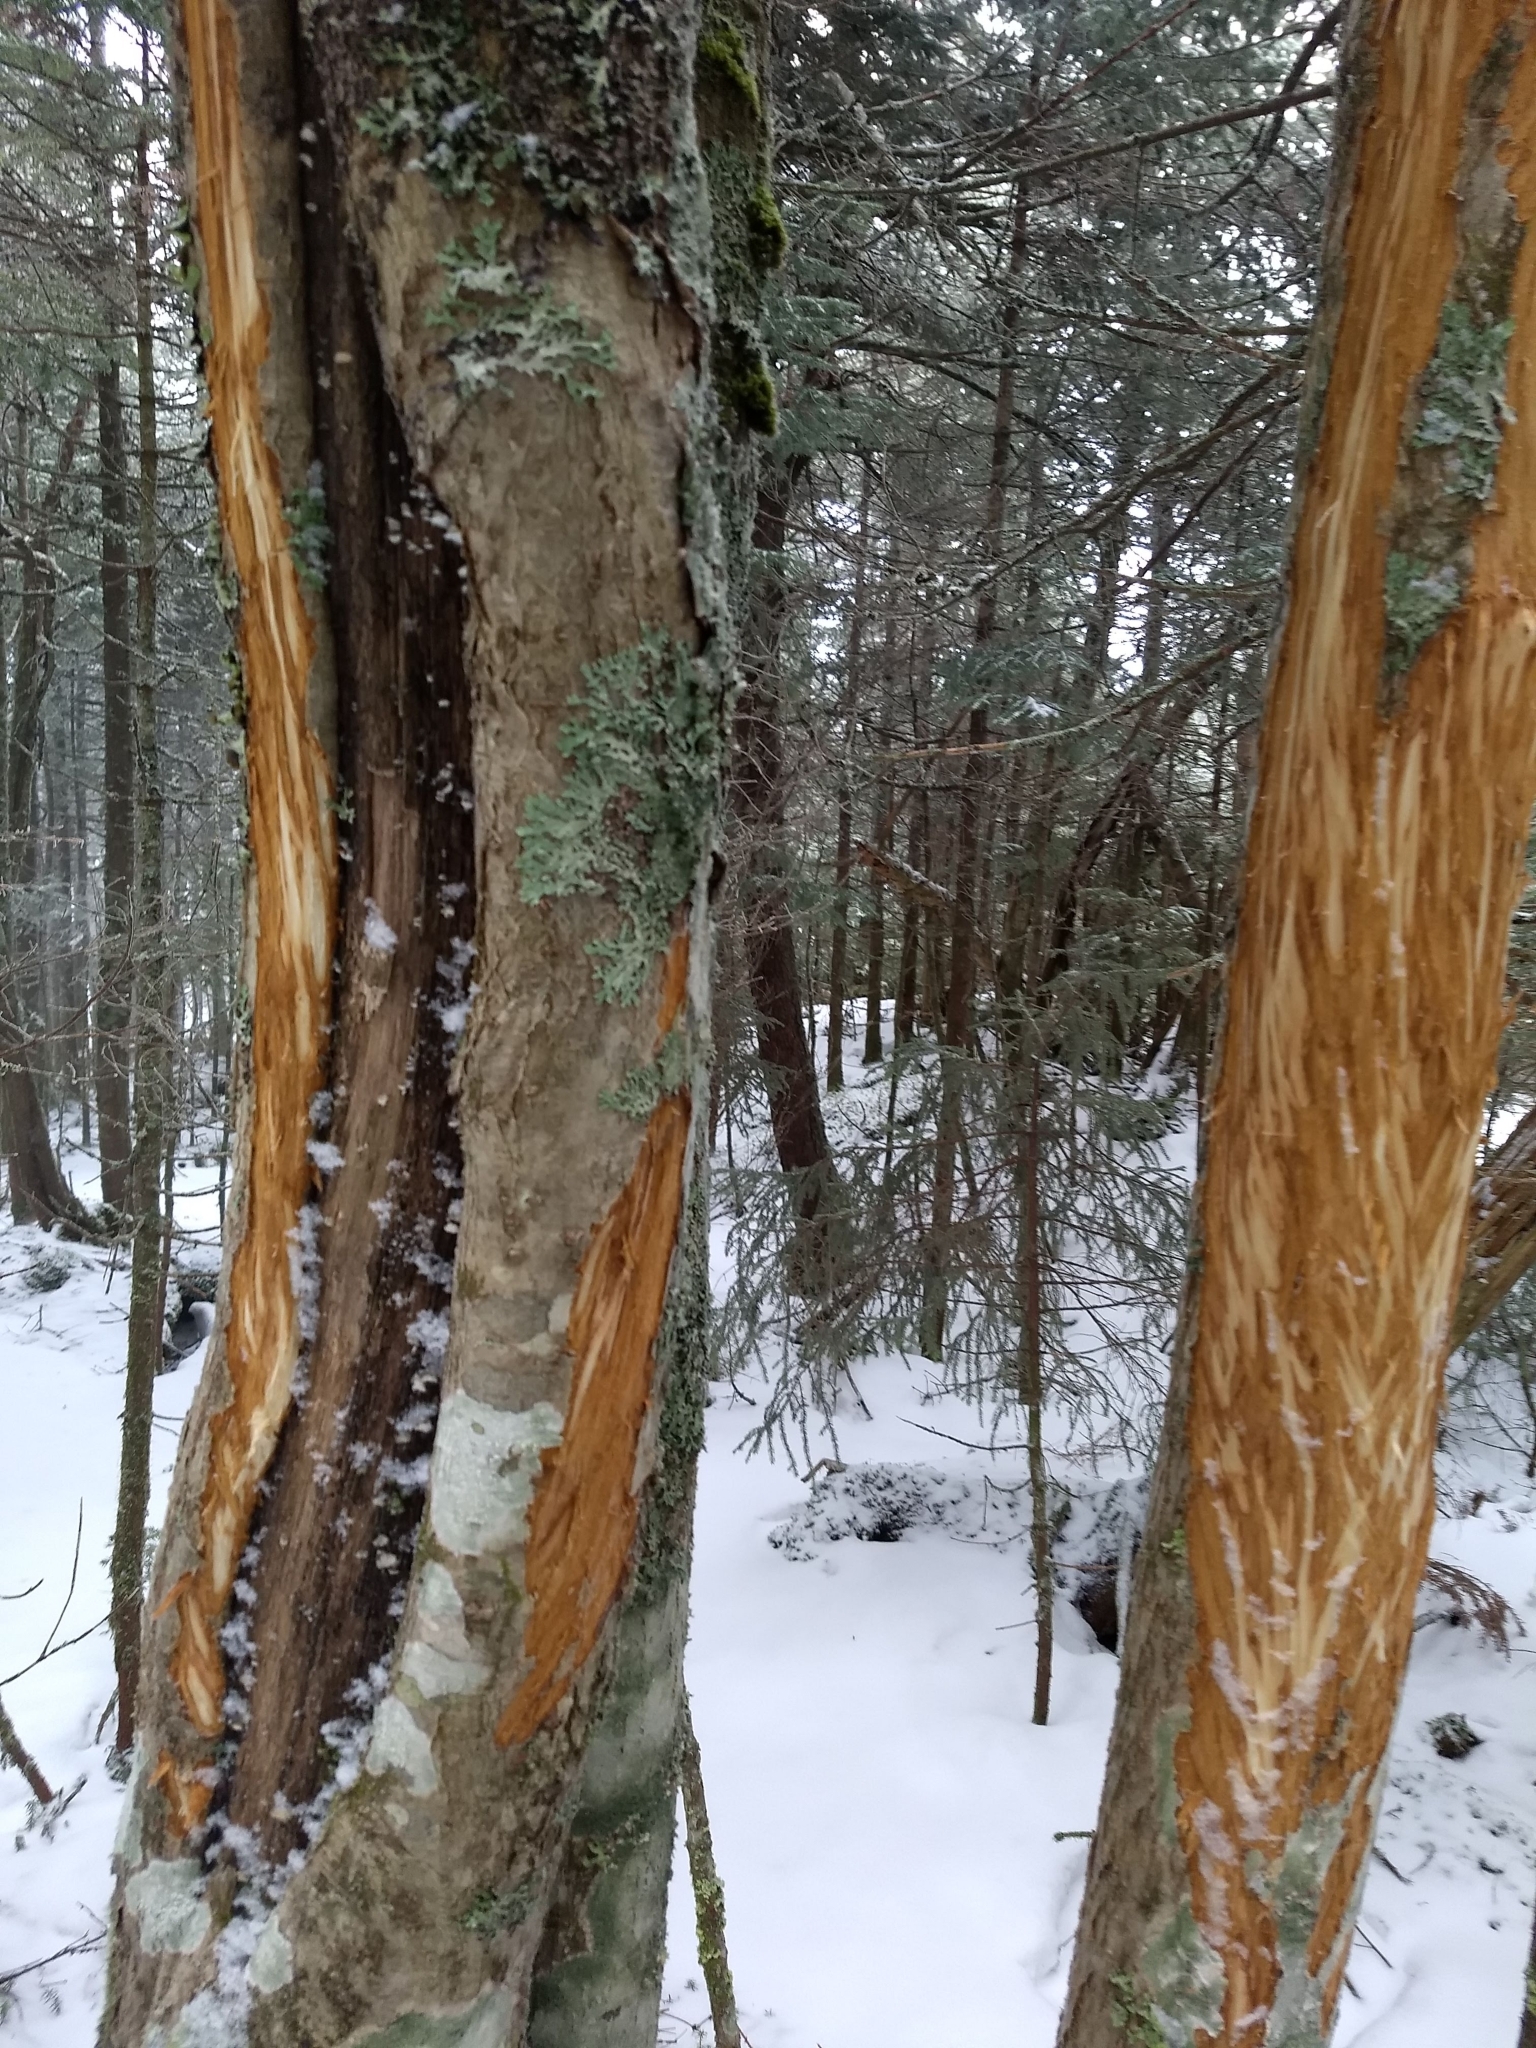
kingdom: Animalia
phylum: Chordata
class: Mammalia
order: Artiodactyla
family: Cervidae
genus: Alces
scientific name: Alces americanus
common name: Moose
